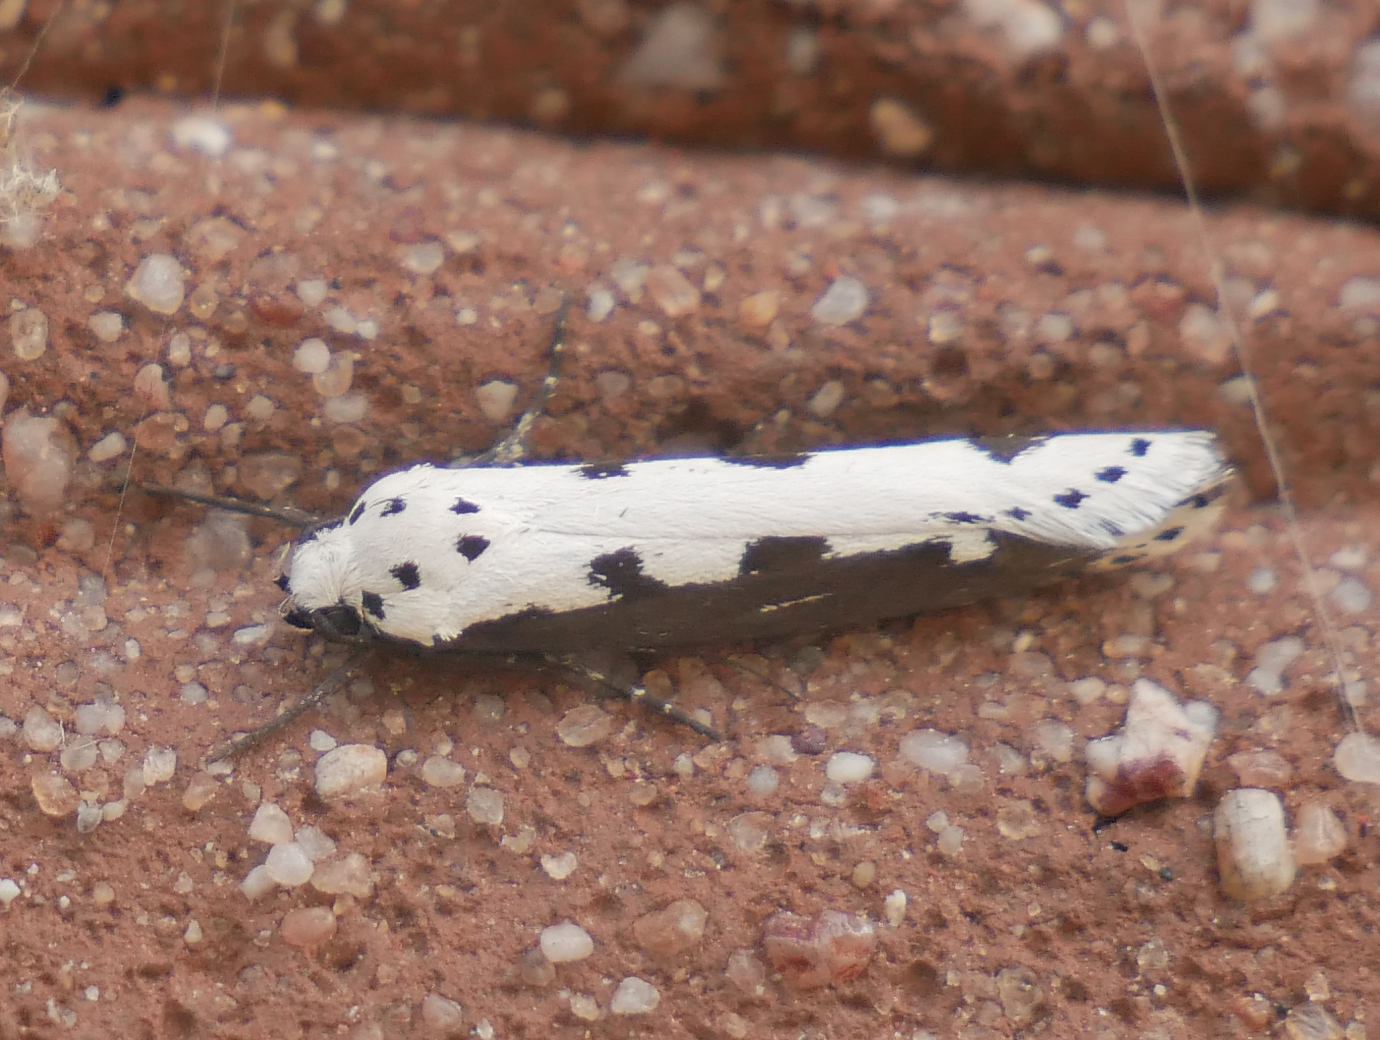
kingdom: Animalia
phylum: Arthropoda
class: Insecta
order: Lepidoptera
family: Ethmiidae
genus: Ethmia
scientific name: Ethmia bipunctella
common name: Bordered ermel
